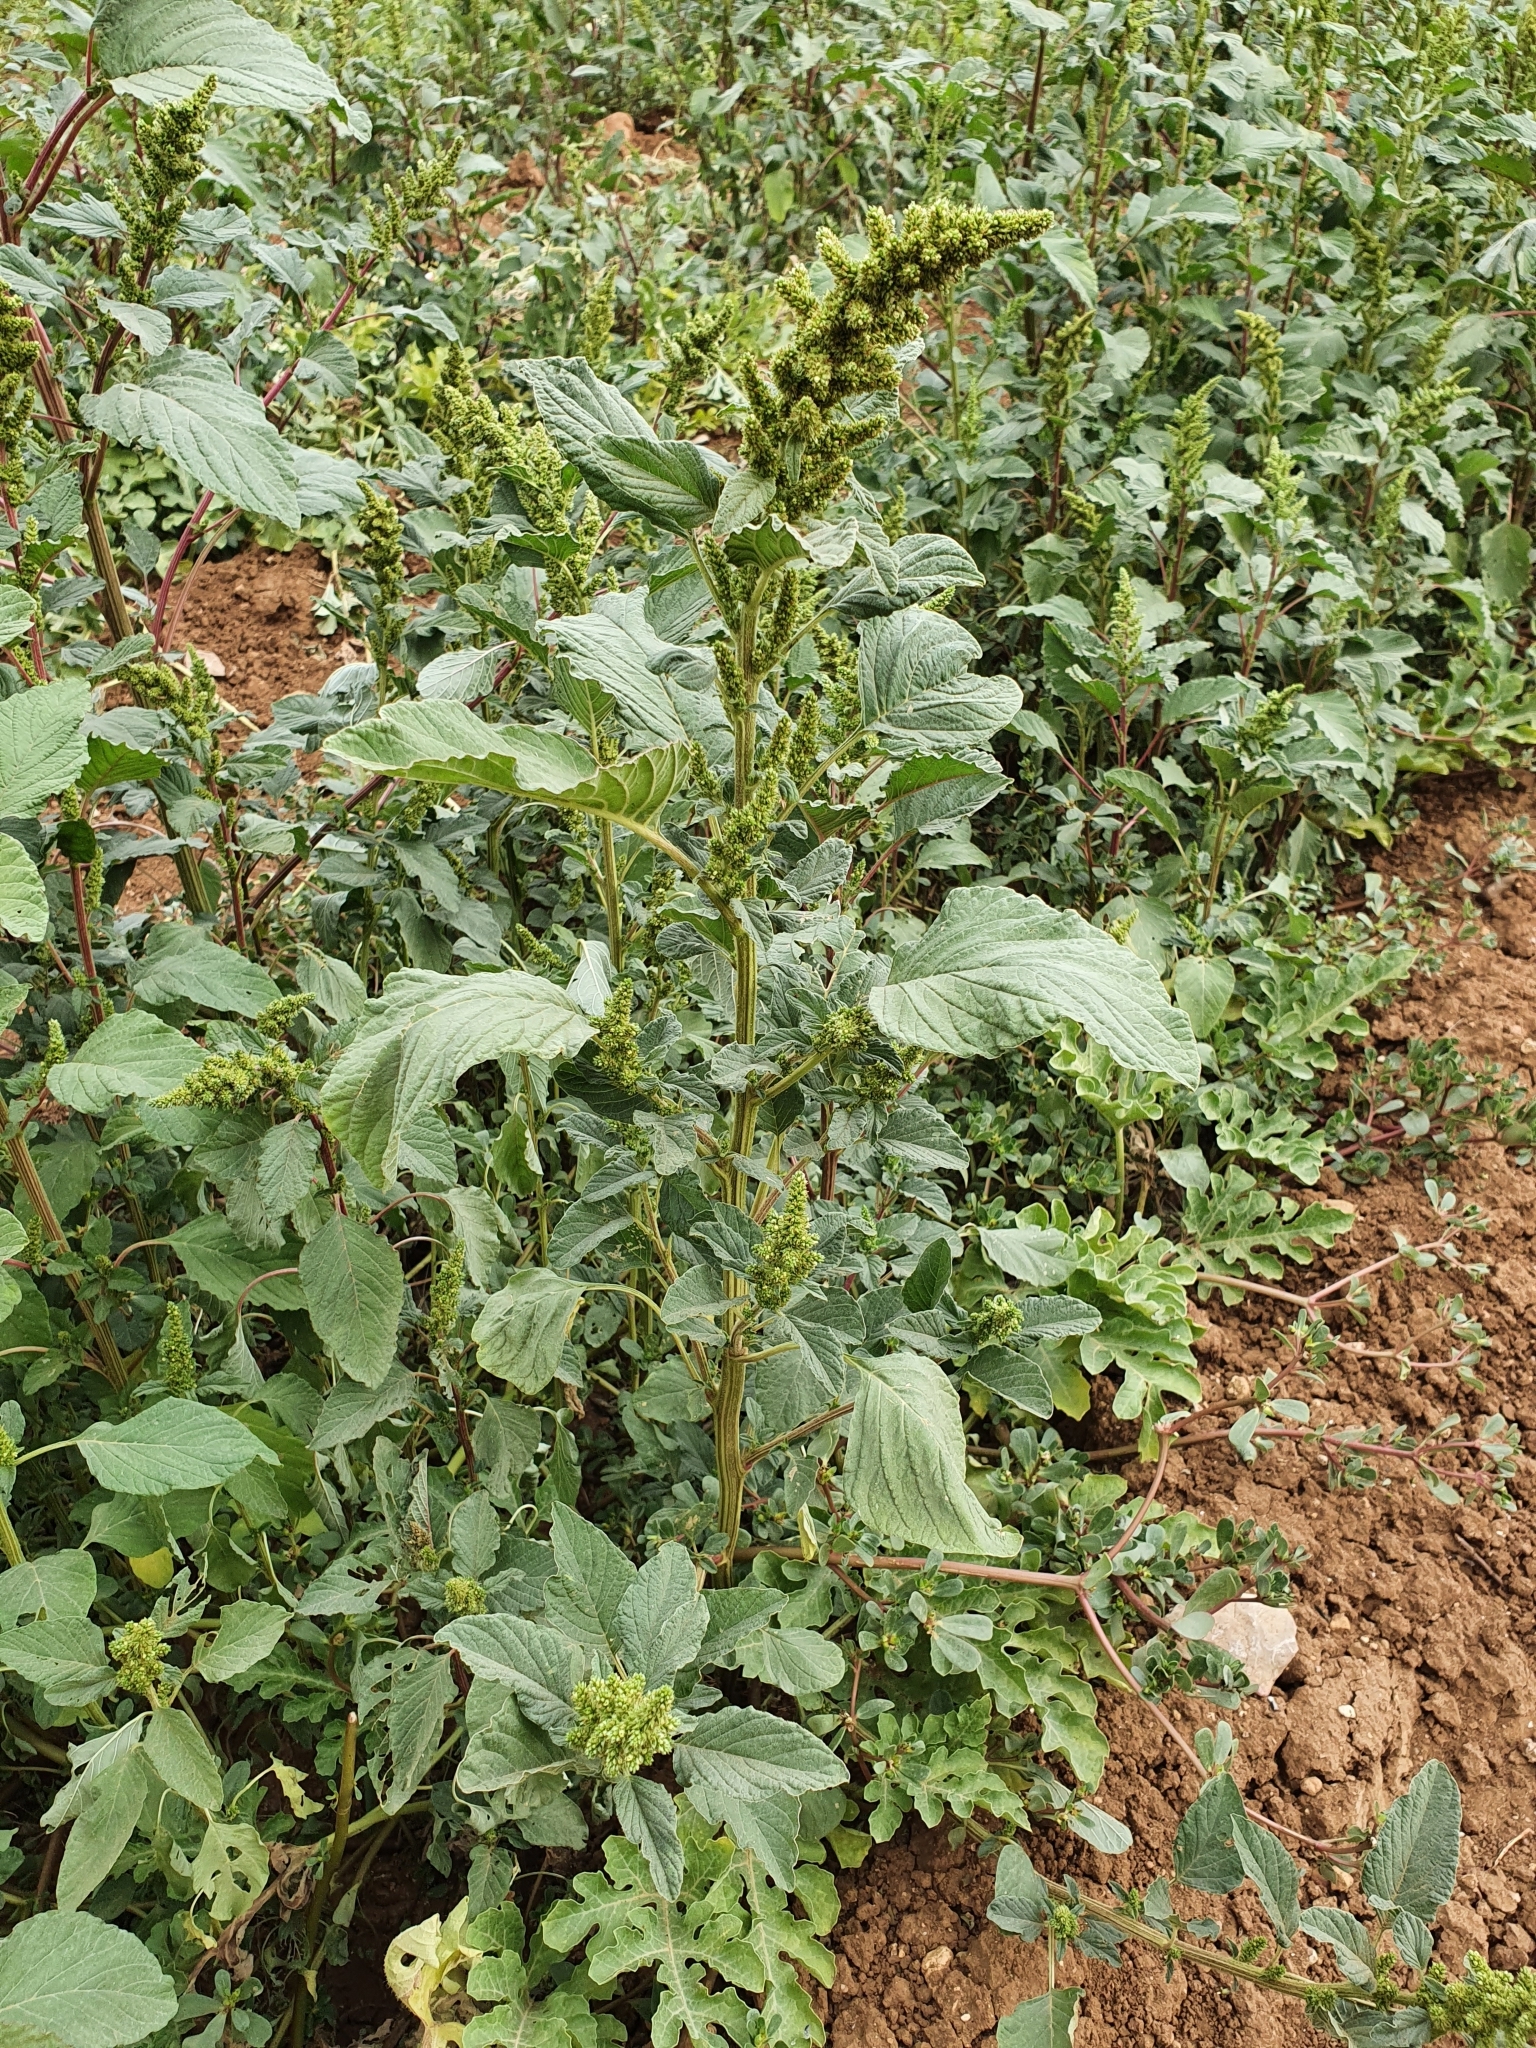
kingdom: Plantae
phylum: Tracheophyta
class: Magnoliopsida
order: Caryophyllales
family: Amaranthaceae
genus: Amaranthus
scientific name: Amaranthus retroflexus
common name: Redroot amaranth
